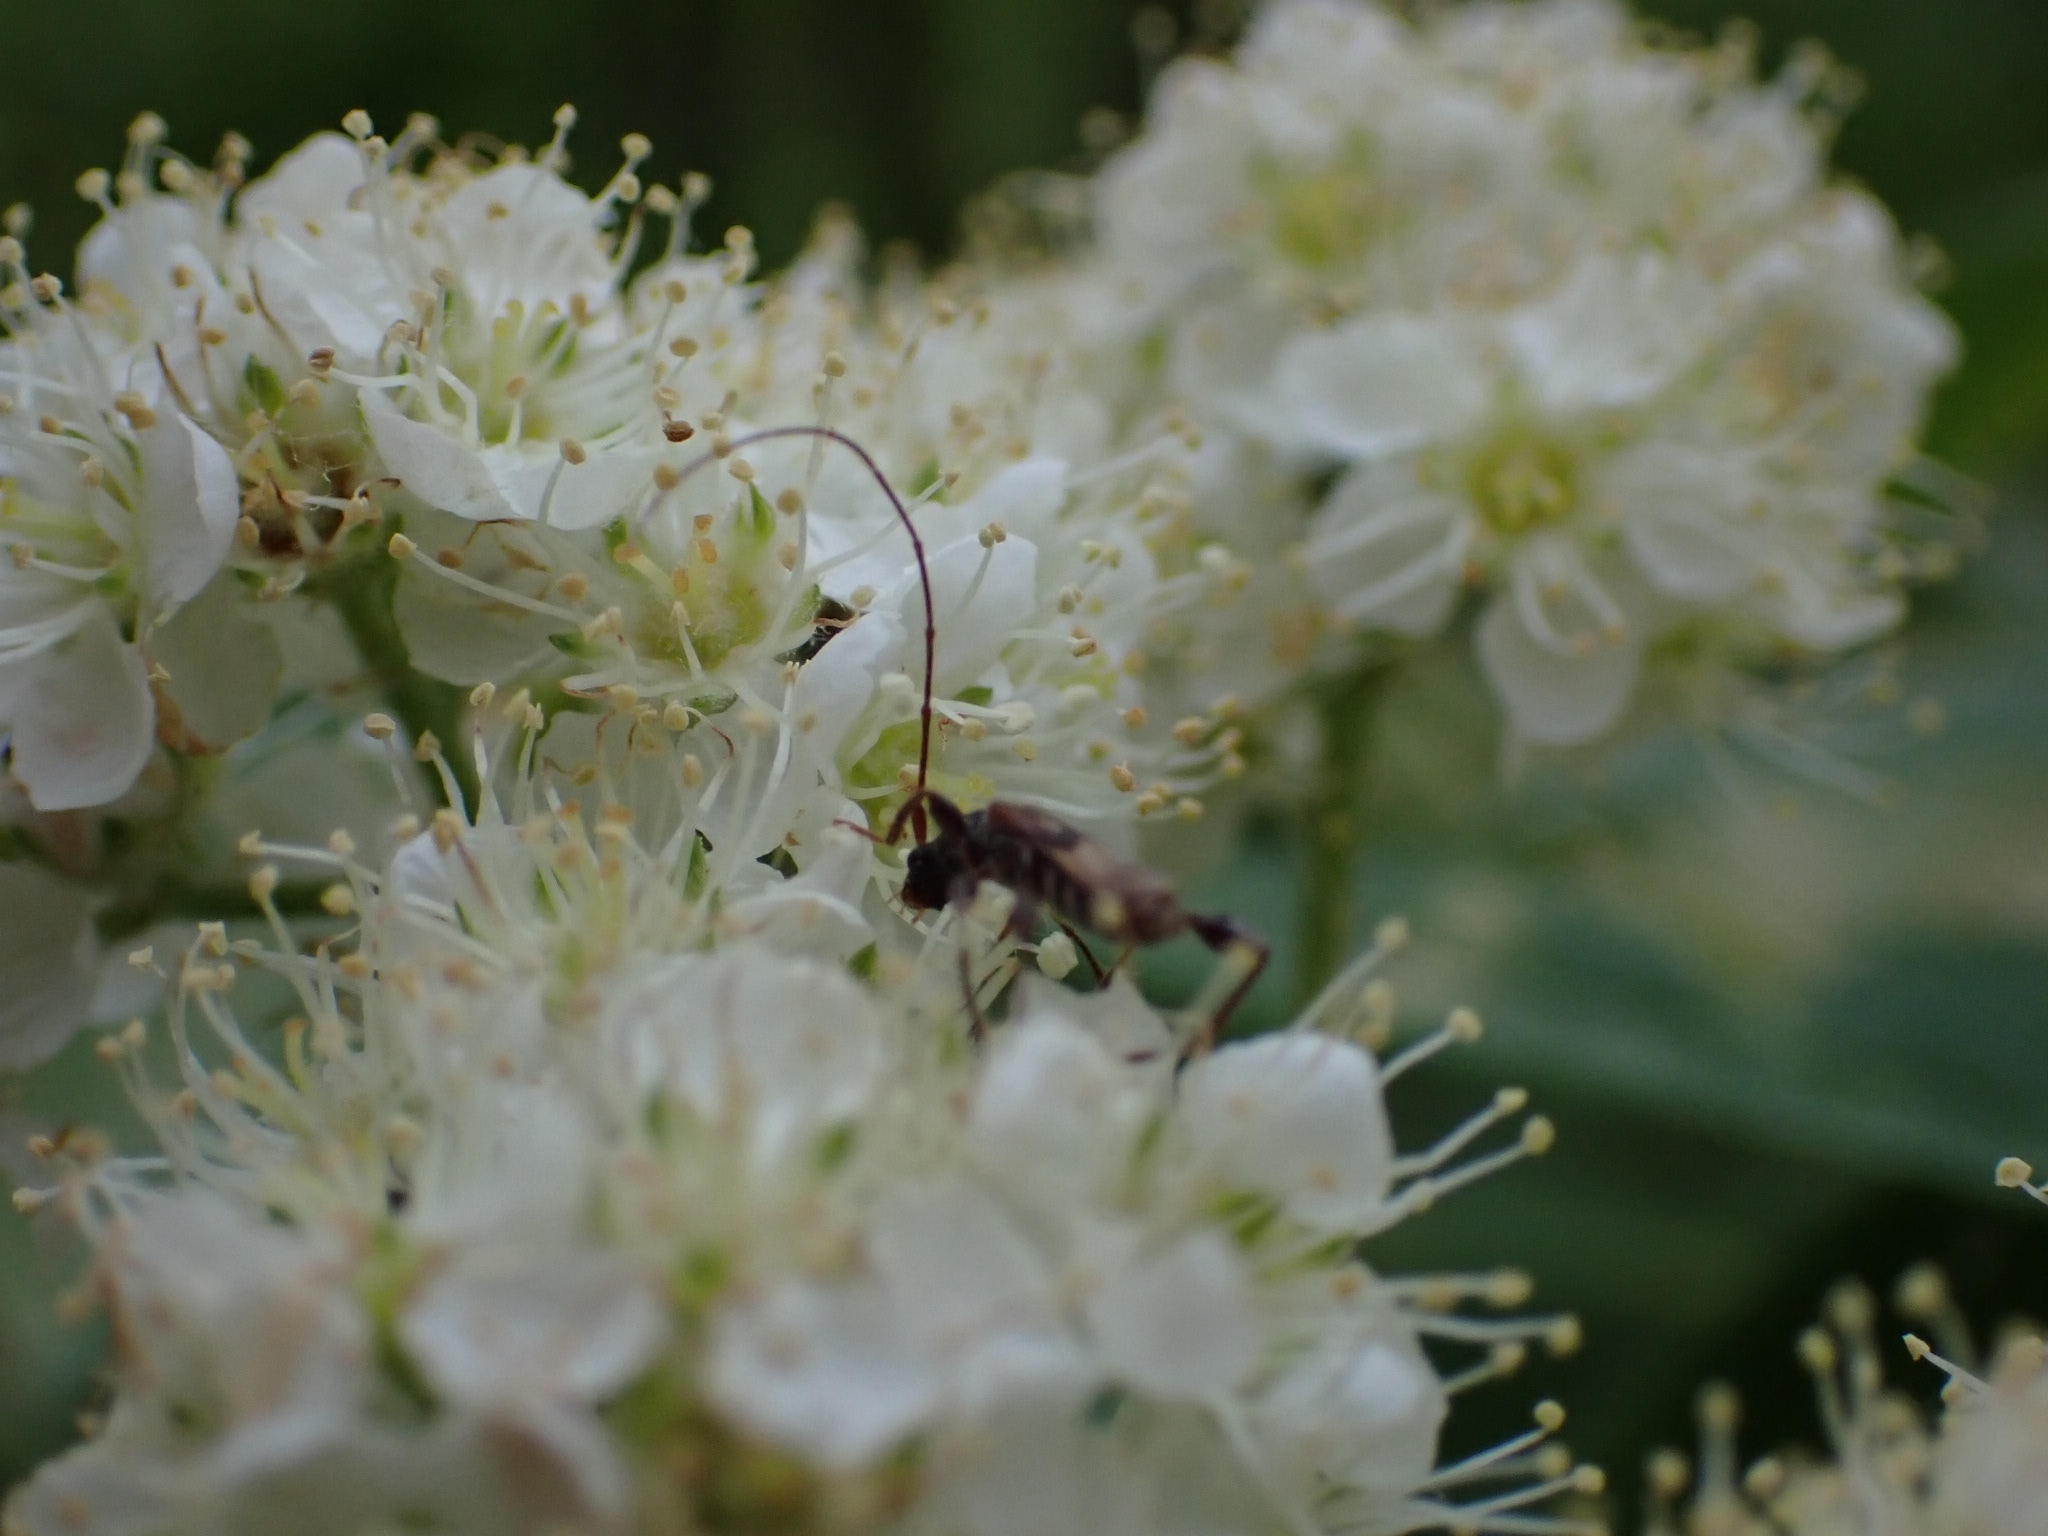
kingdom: Animalia
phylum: Arthropoda
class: Insecta
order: Coleoptera
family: Cerambycidae
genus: Molorchus
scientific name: Molorchus minor
